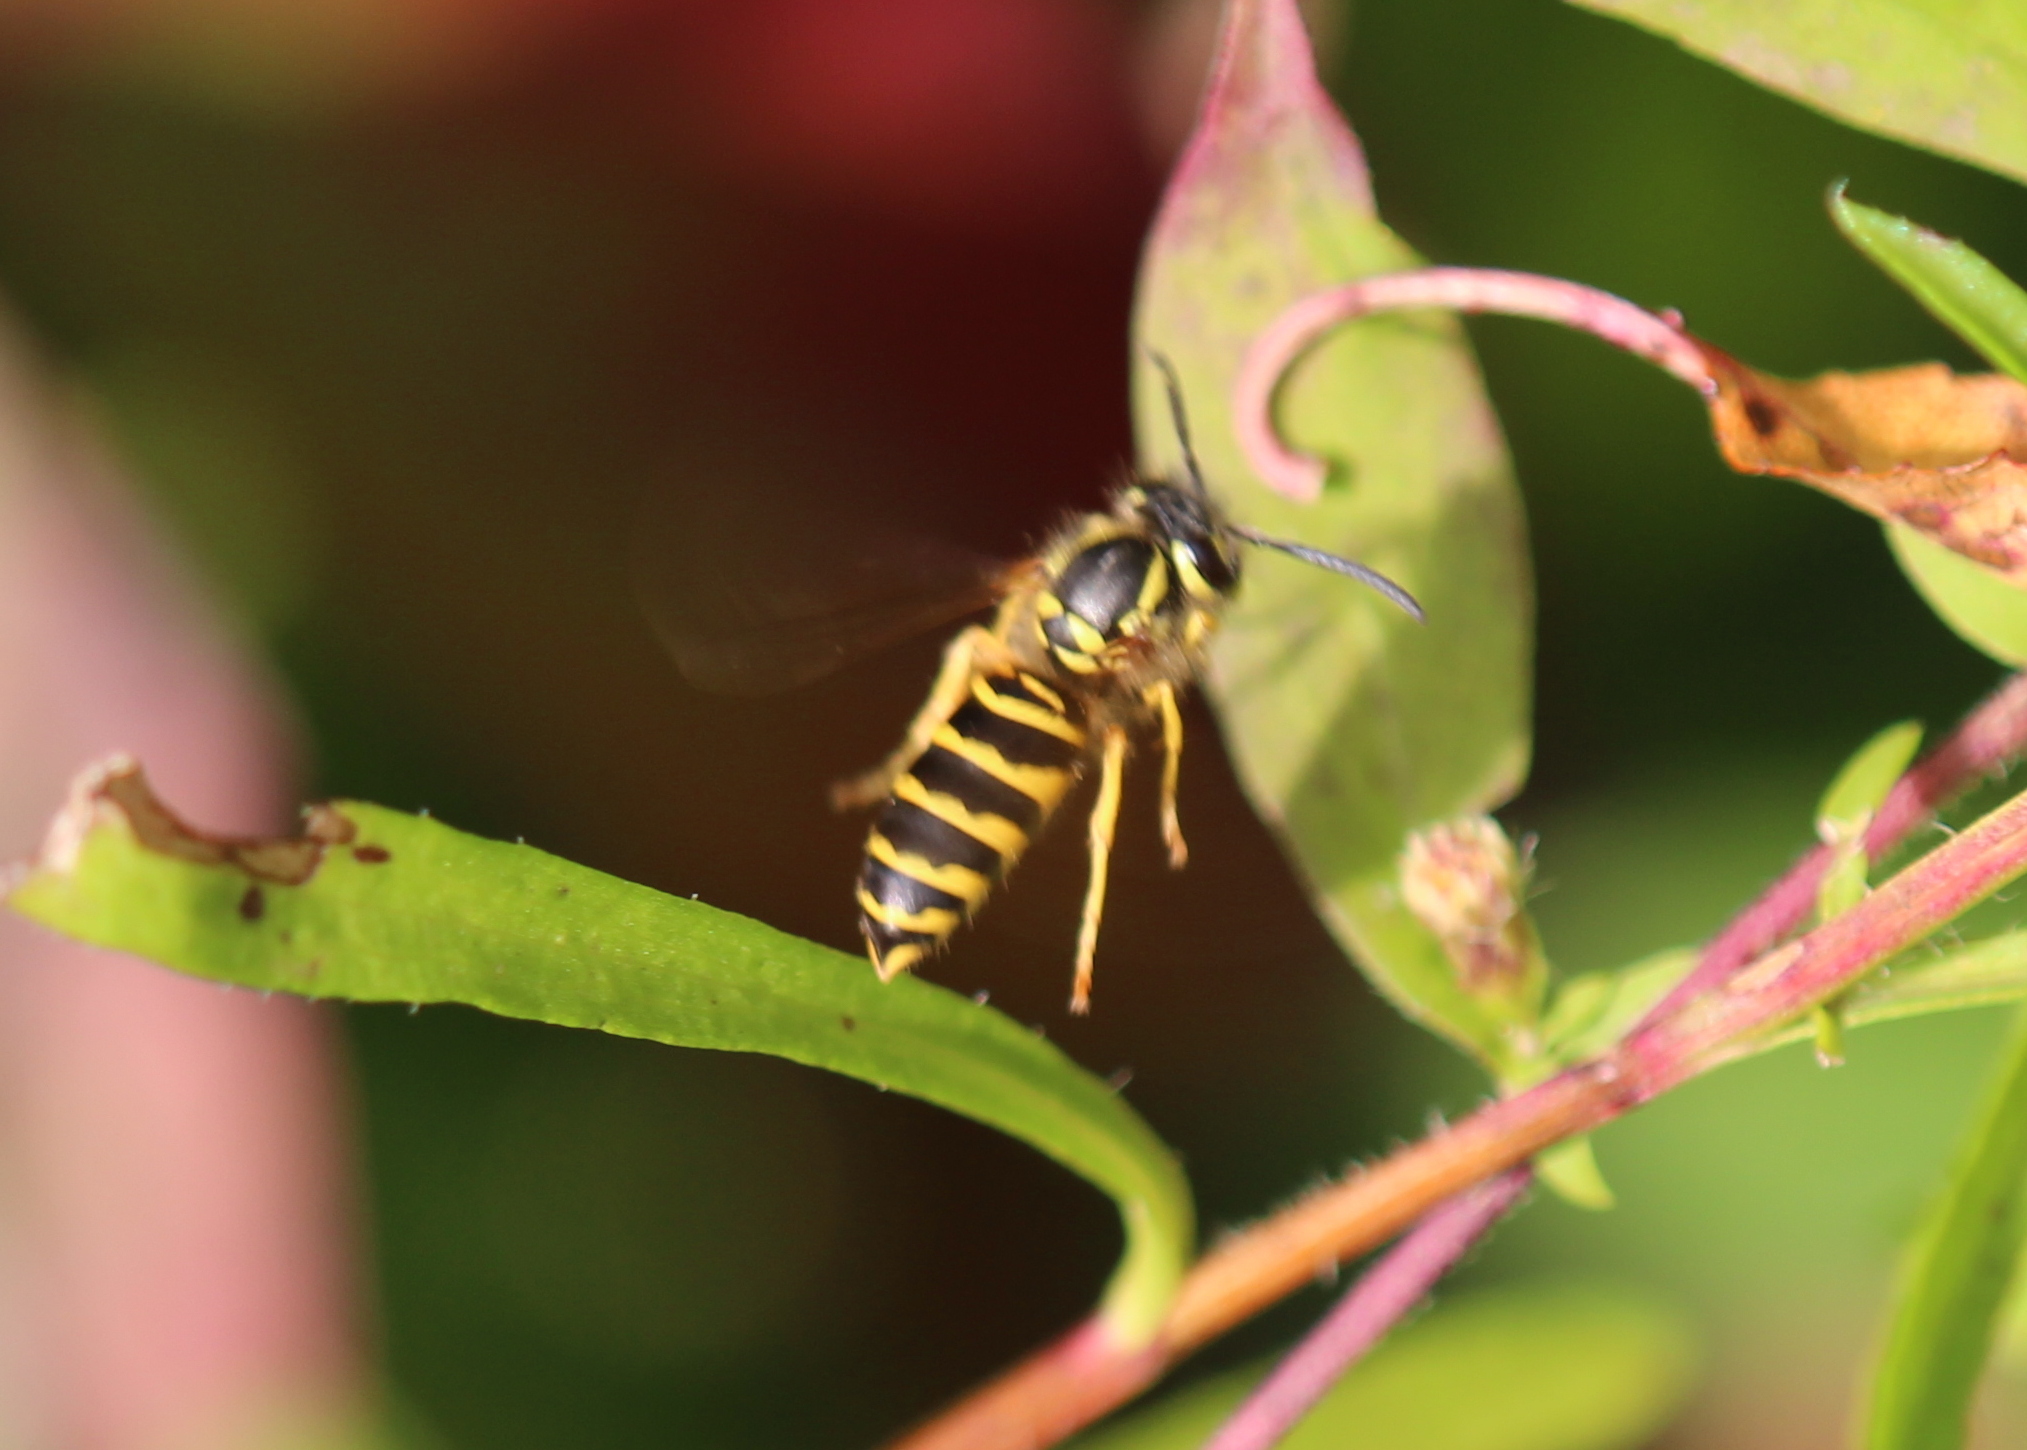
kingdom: Animalia
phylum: Arthropoda
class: Insecta
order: Hymenoptera
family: Vespidae
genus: Vespula
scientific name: Vespula maculifrons
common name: Eastern yellowjacket
